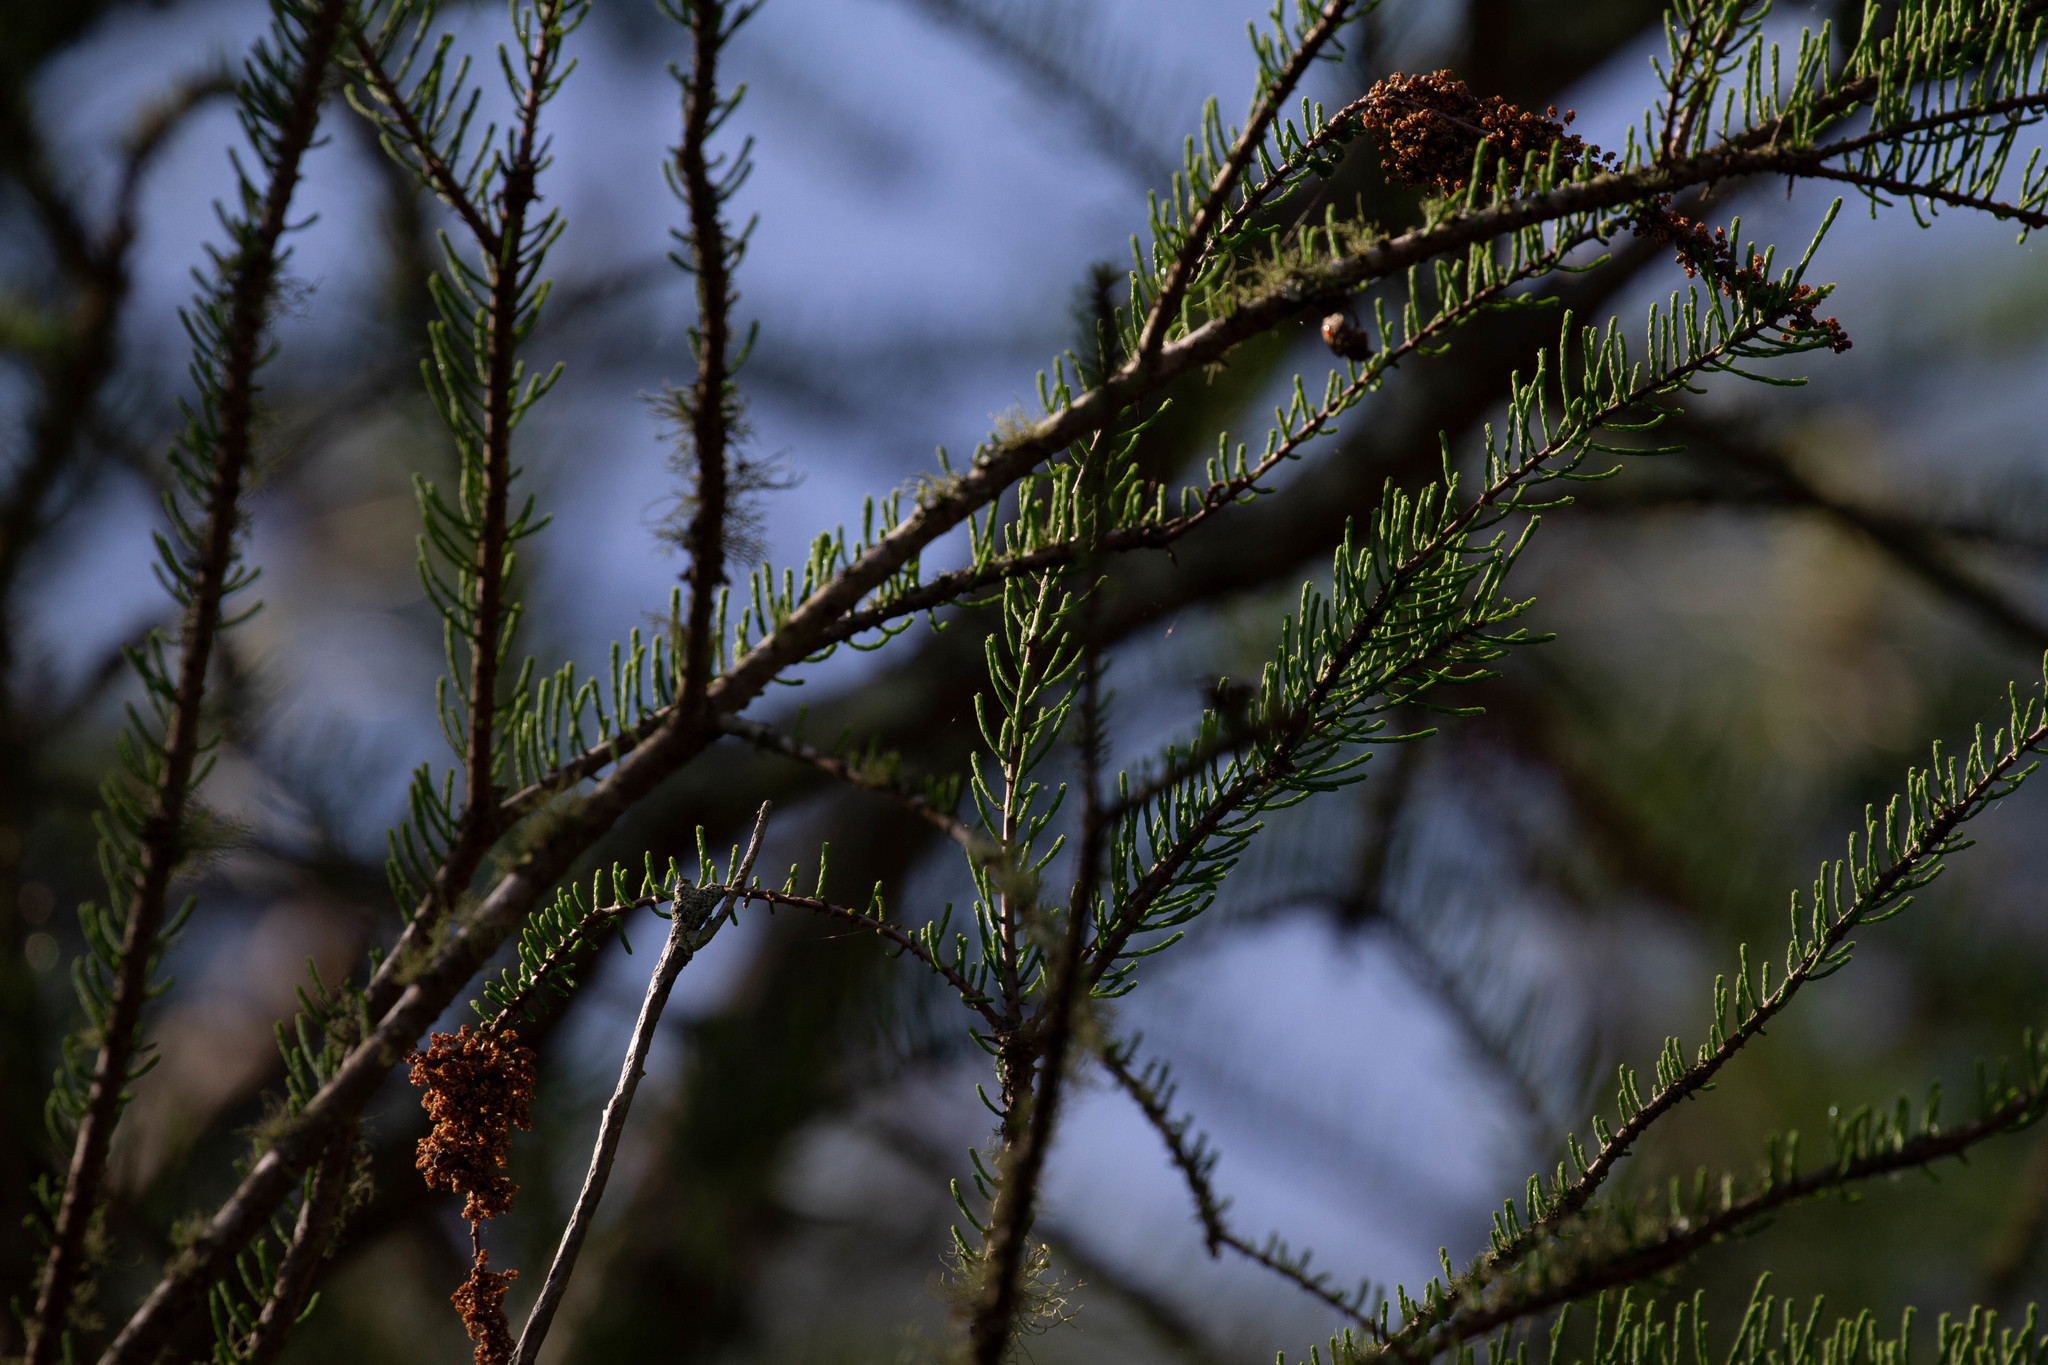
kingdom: Plantae
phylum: Tracheophyta
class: Pinopsida
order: Pinales
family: Cupressaceae
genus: Taxodium
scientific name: Taxodium distichum
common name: Bald cypress
